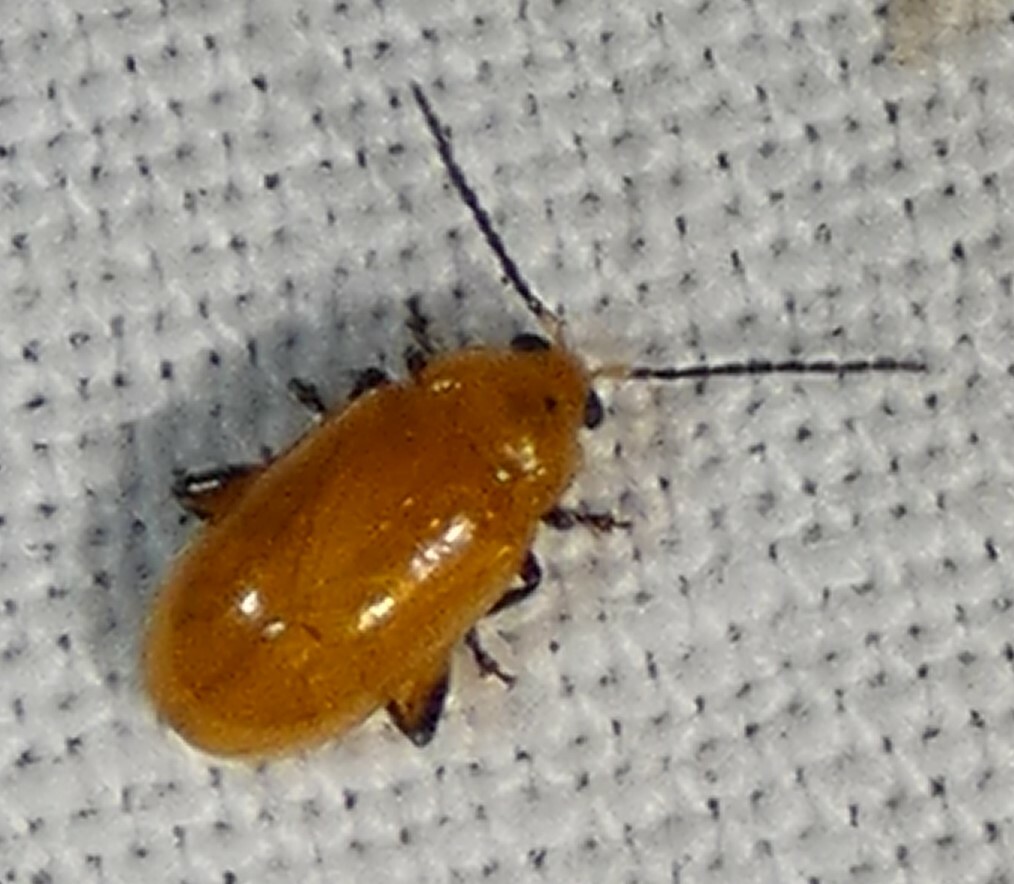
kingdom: Animalia
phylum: Arthropoda
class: Insecta
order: Coleoptera
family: Chrysomelidae
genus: Parchicola
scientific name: Parchicola tibialis
